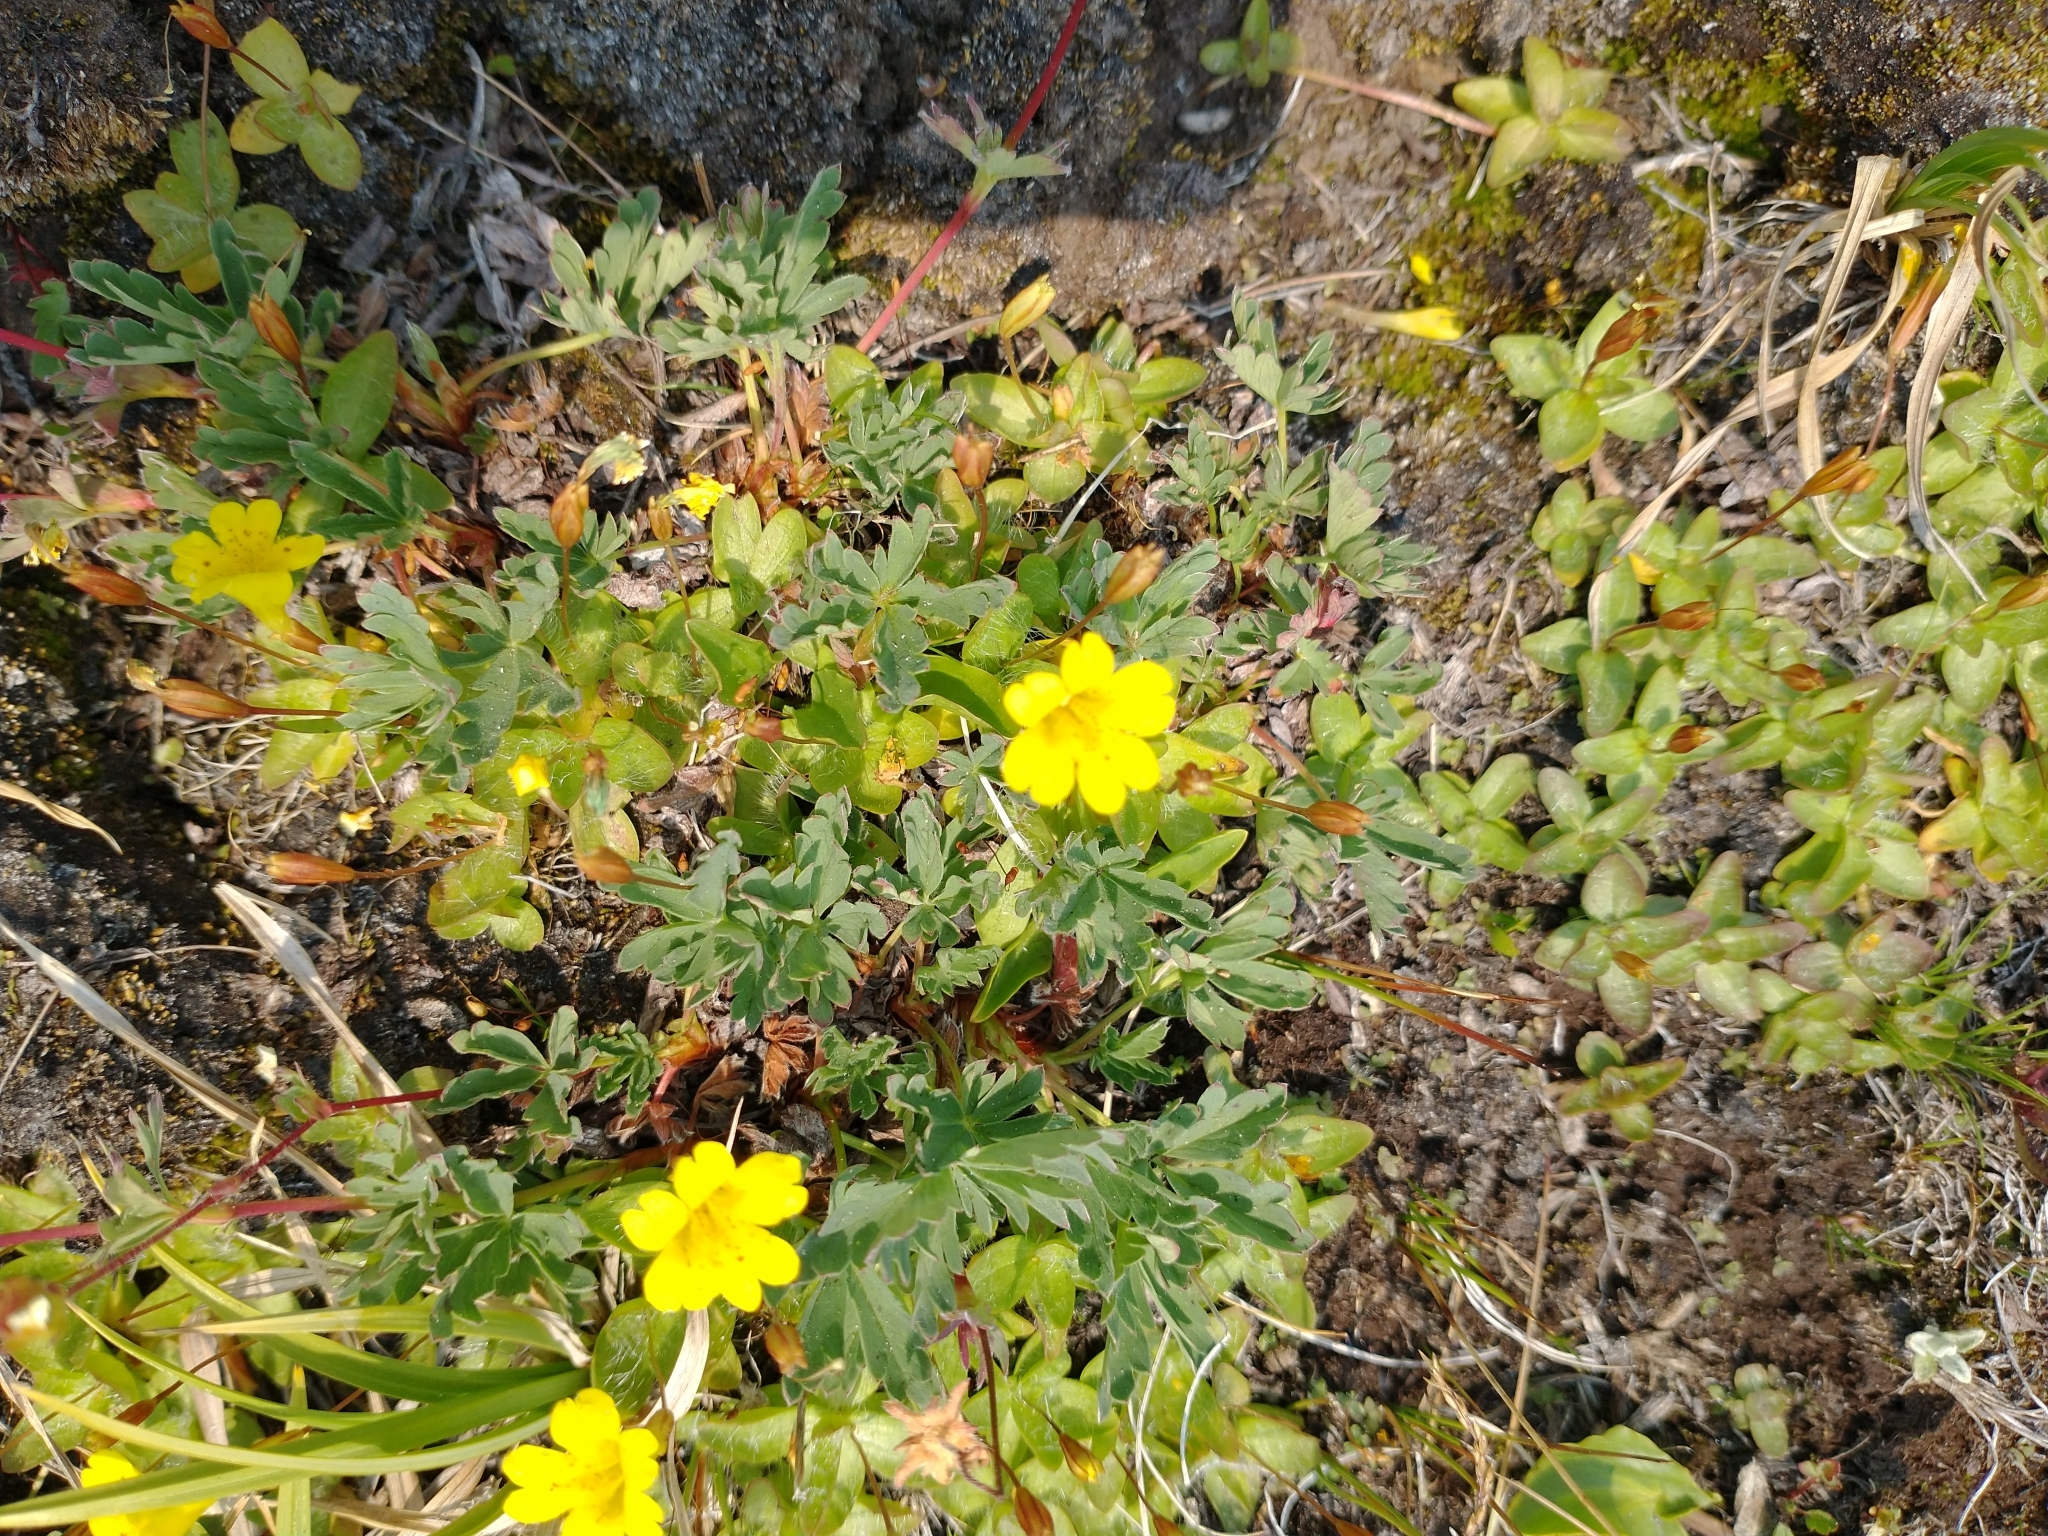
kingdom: Plantae
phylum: Tracheophyta
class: Magnoliopsida
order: Lamiales
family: Phrymaceae
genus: Erythranthe
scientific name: Erythranthe primuloides
